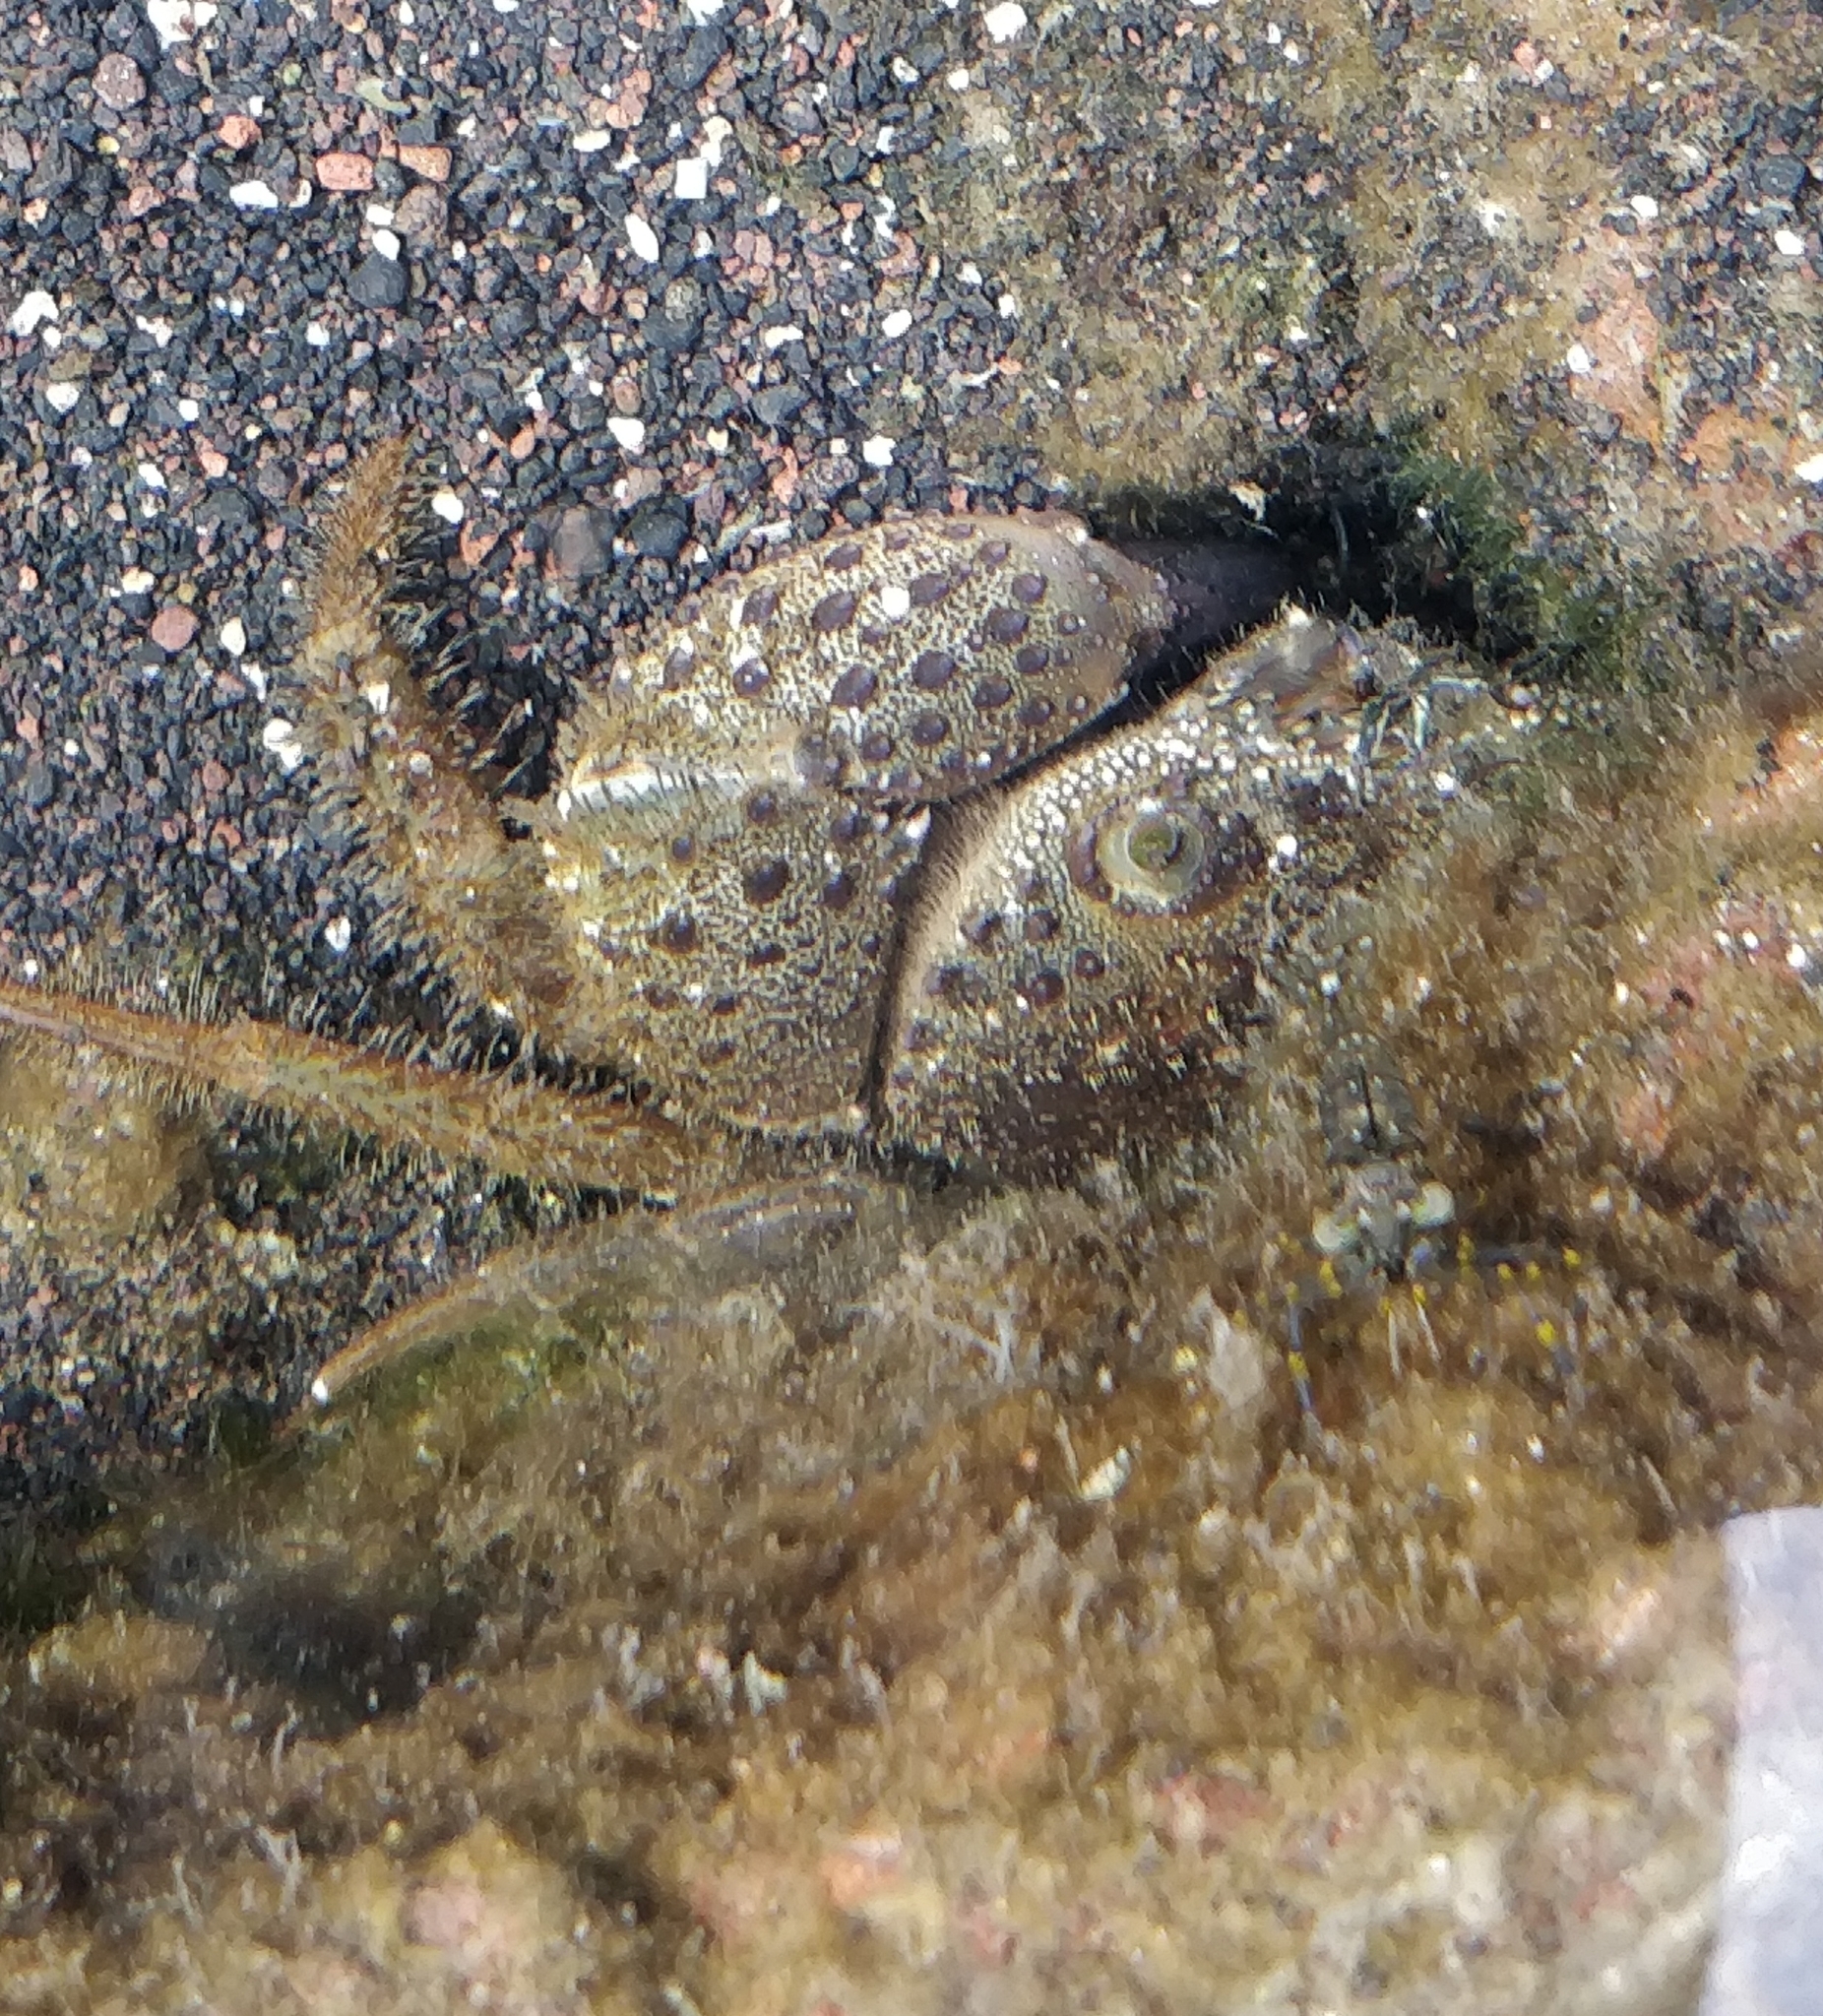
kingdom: Animalia
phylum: Arthropoda
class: Malacostraca
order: Decapoda
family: Eriphiidae
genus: Eriphia
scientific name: Eriphia verrucosa
